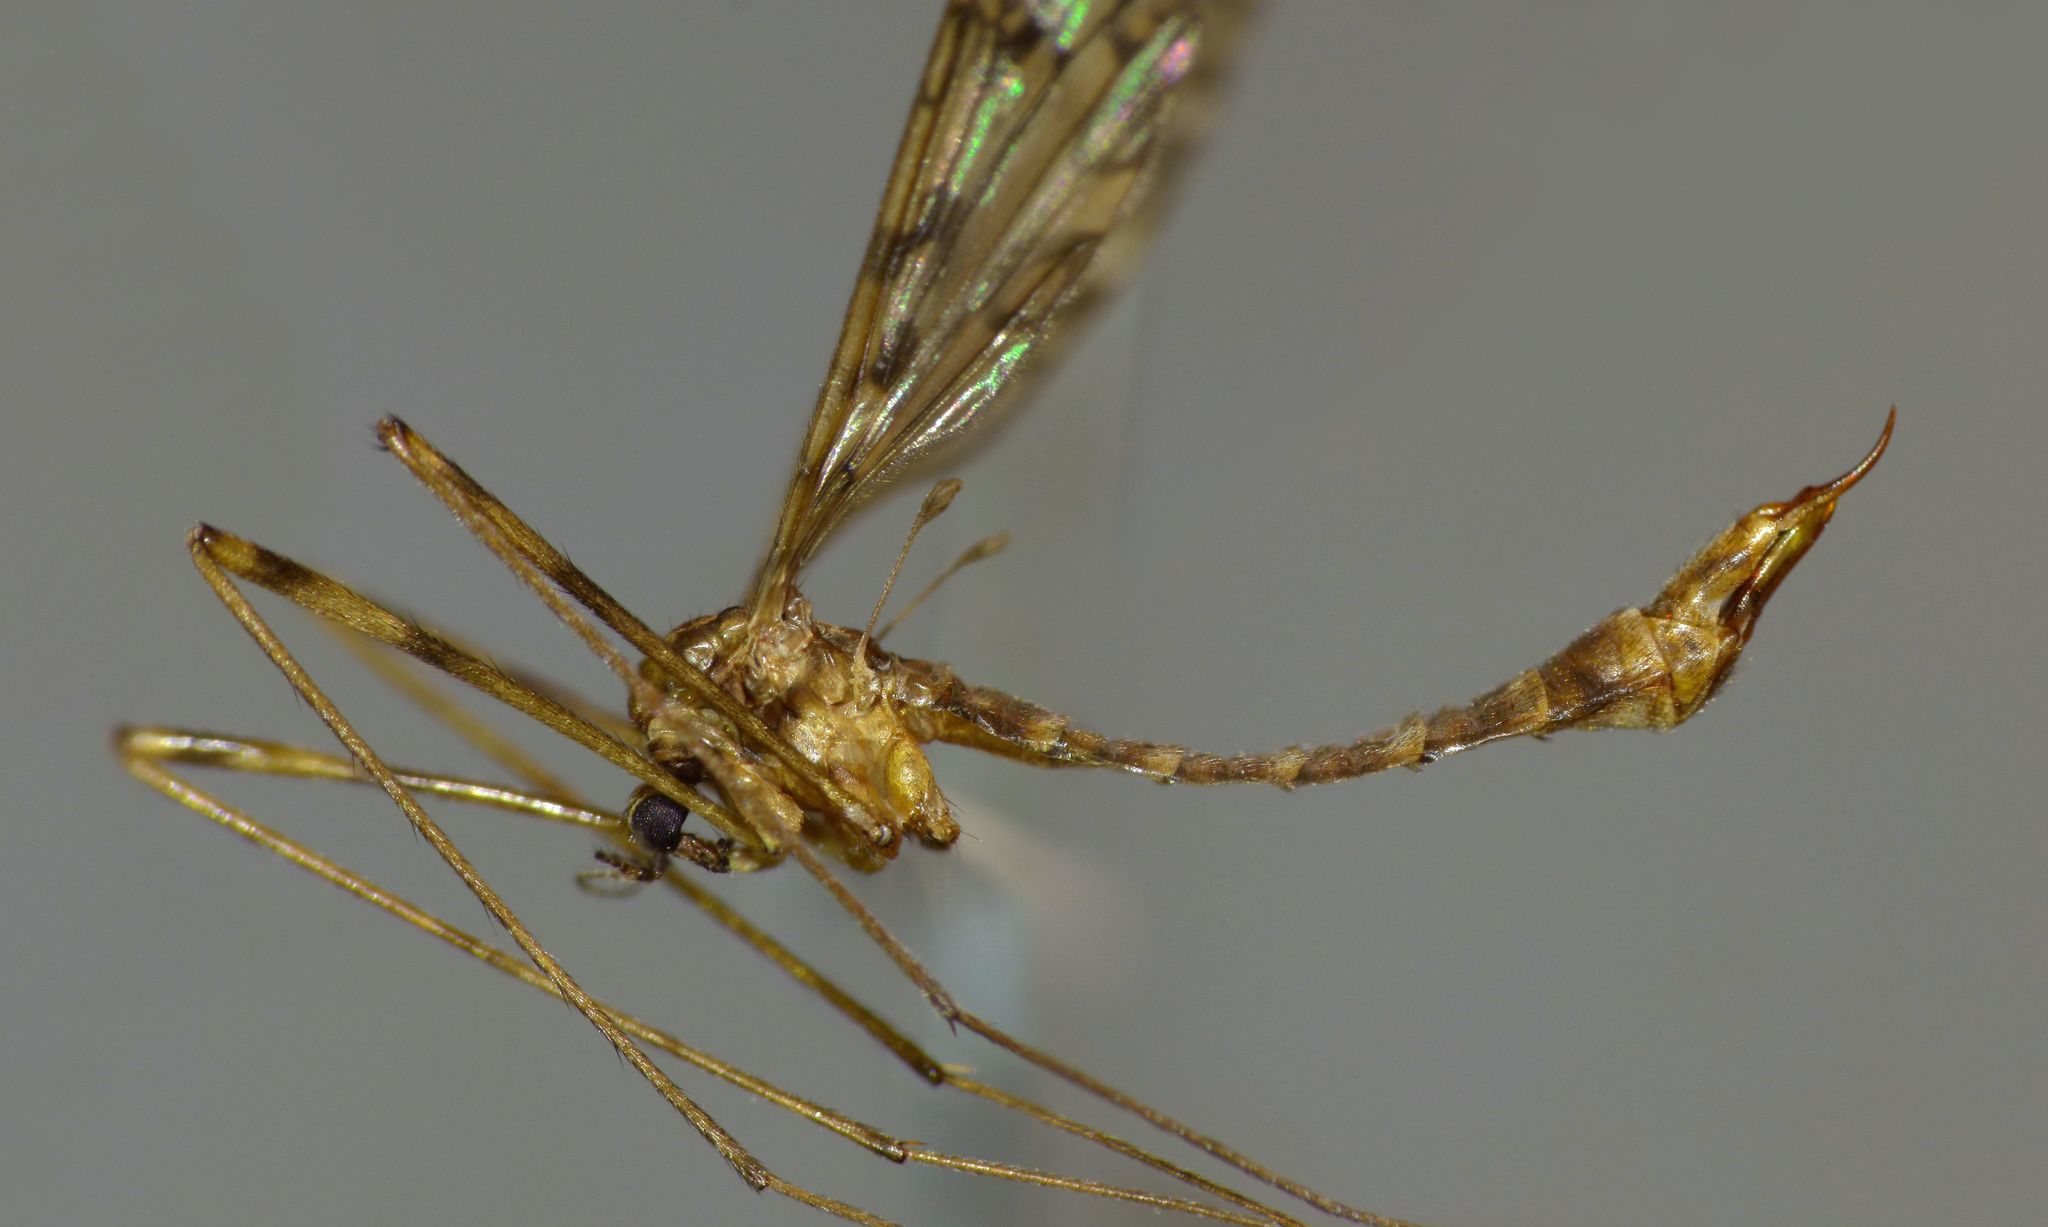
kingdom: Animalia
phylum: Arthropoda
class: Insecta
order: Diptera
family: Limoniidae
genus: Austrolimnophila
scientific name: Austrolimnophila lambi
